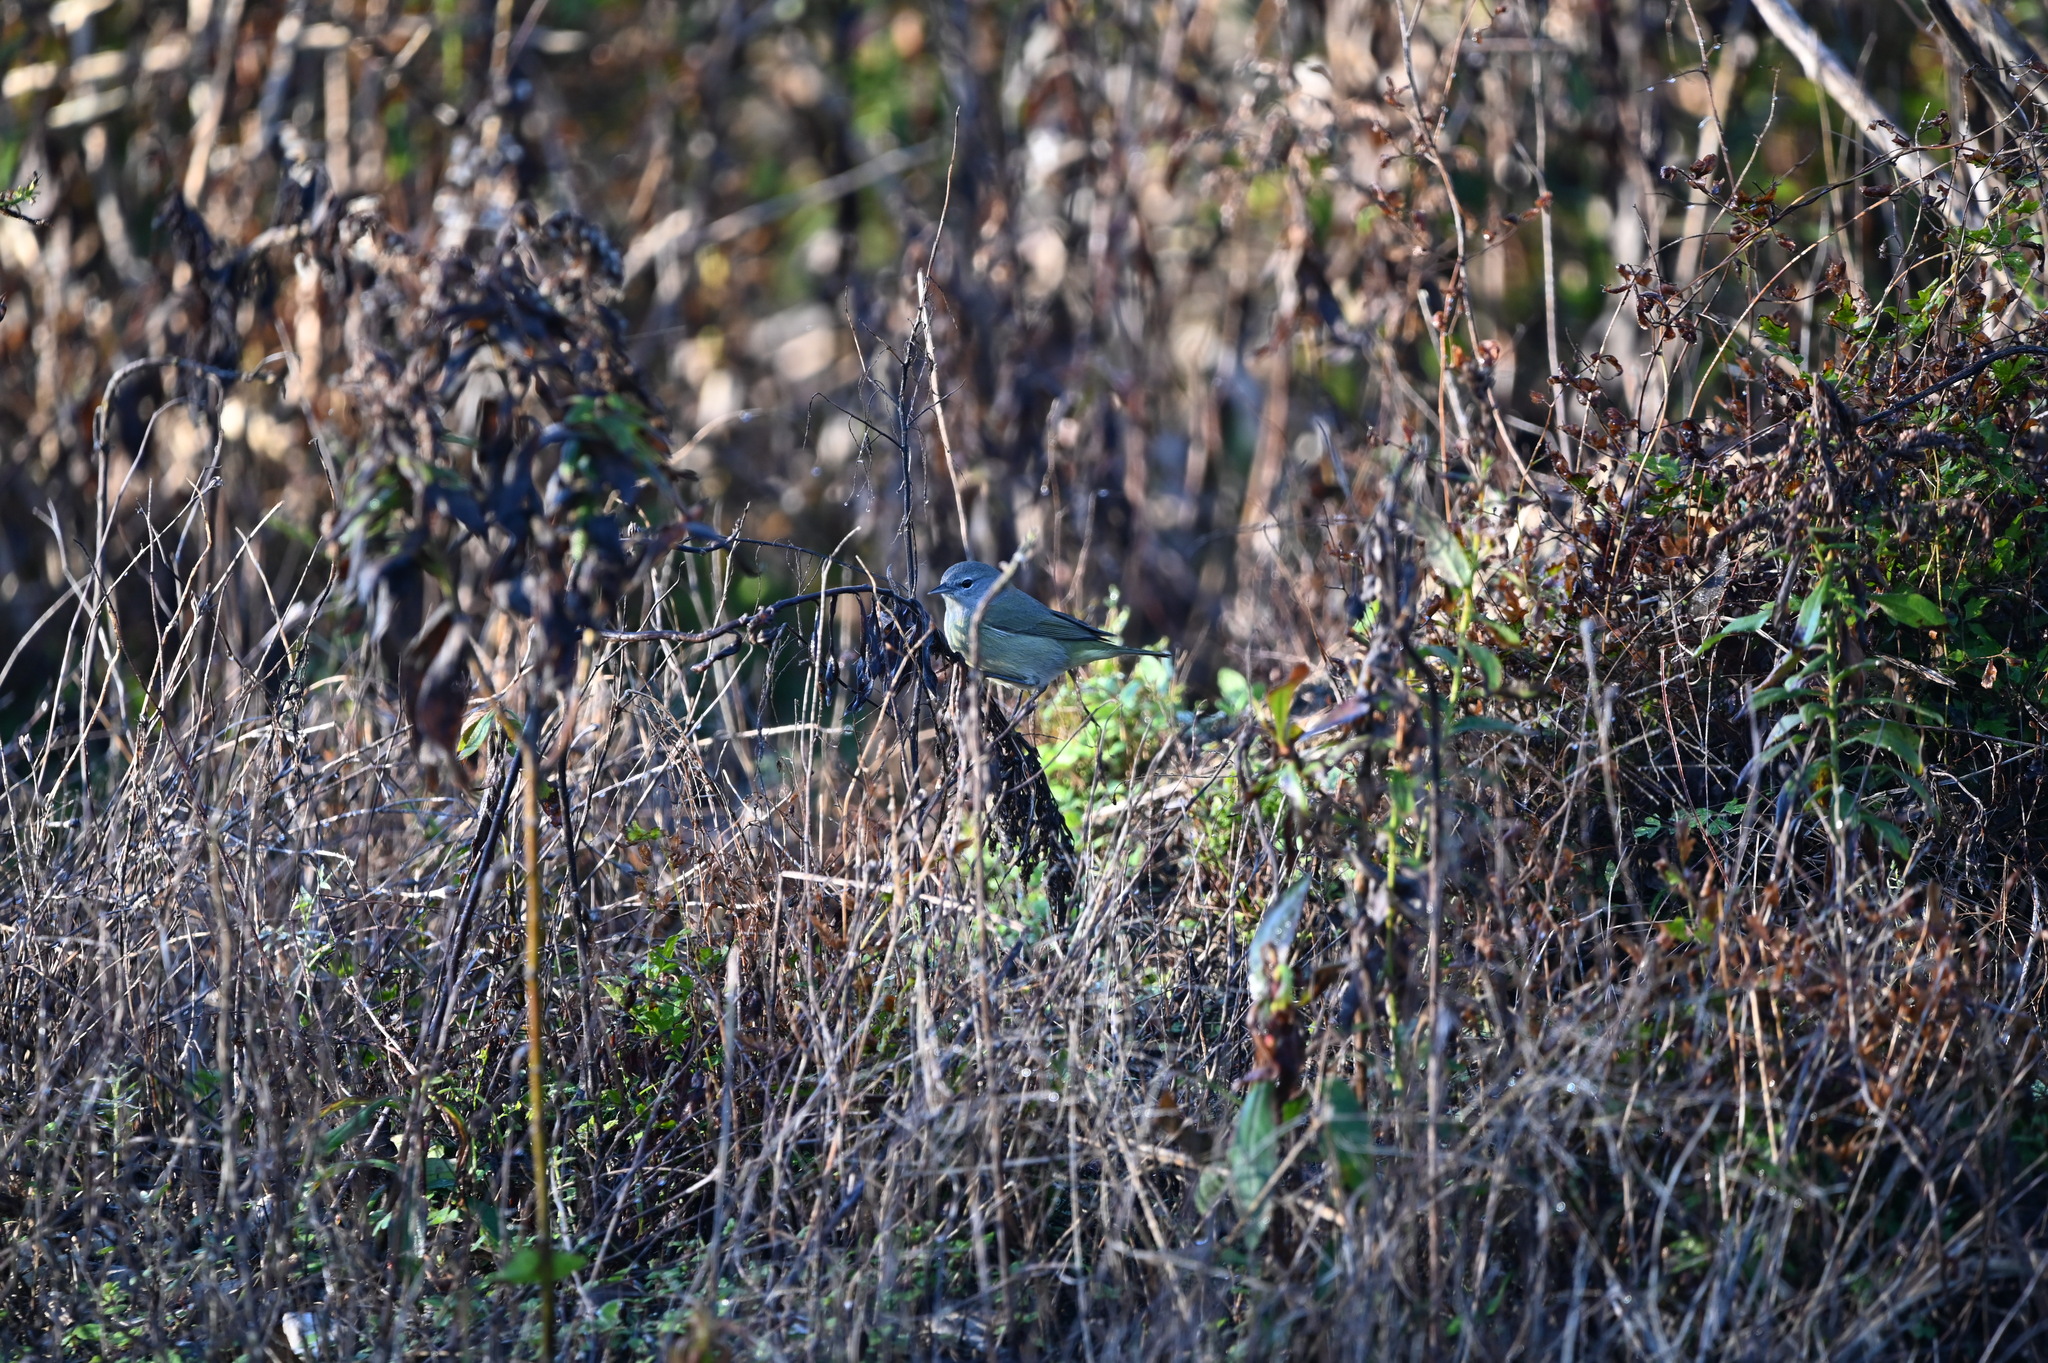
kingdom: Animalia
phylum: Chordata
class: Aves
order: Passeriformes
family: Parulidae
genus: Leiothlypis
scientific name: Leiothlypis celata
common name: Orange-crowned warbler
